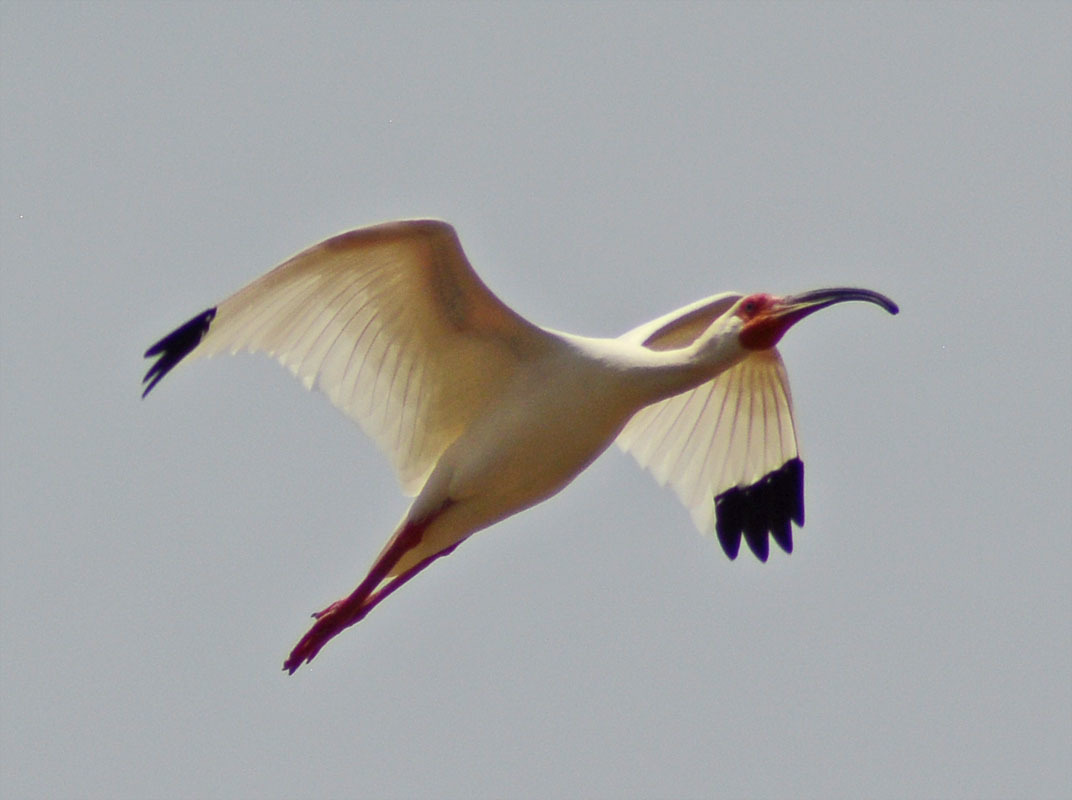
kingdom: Animalia
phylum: Chordata
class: Aves
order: Pelecaniformes
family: Threskiornithidae
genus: Eudocimus
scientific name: Eudocimus albus
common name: White ibis
